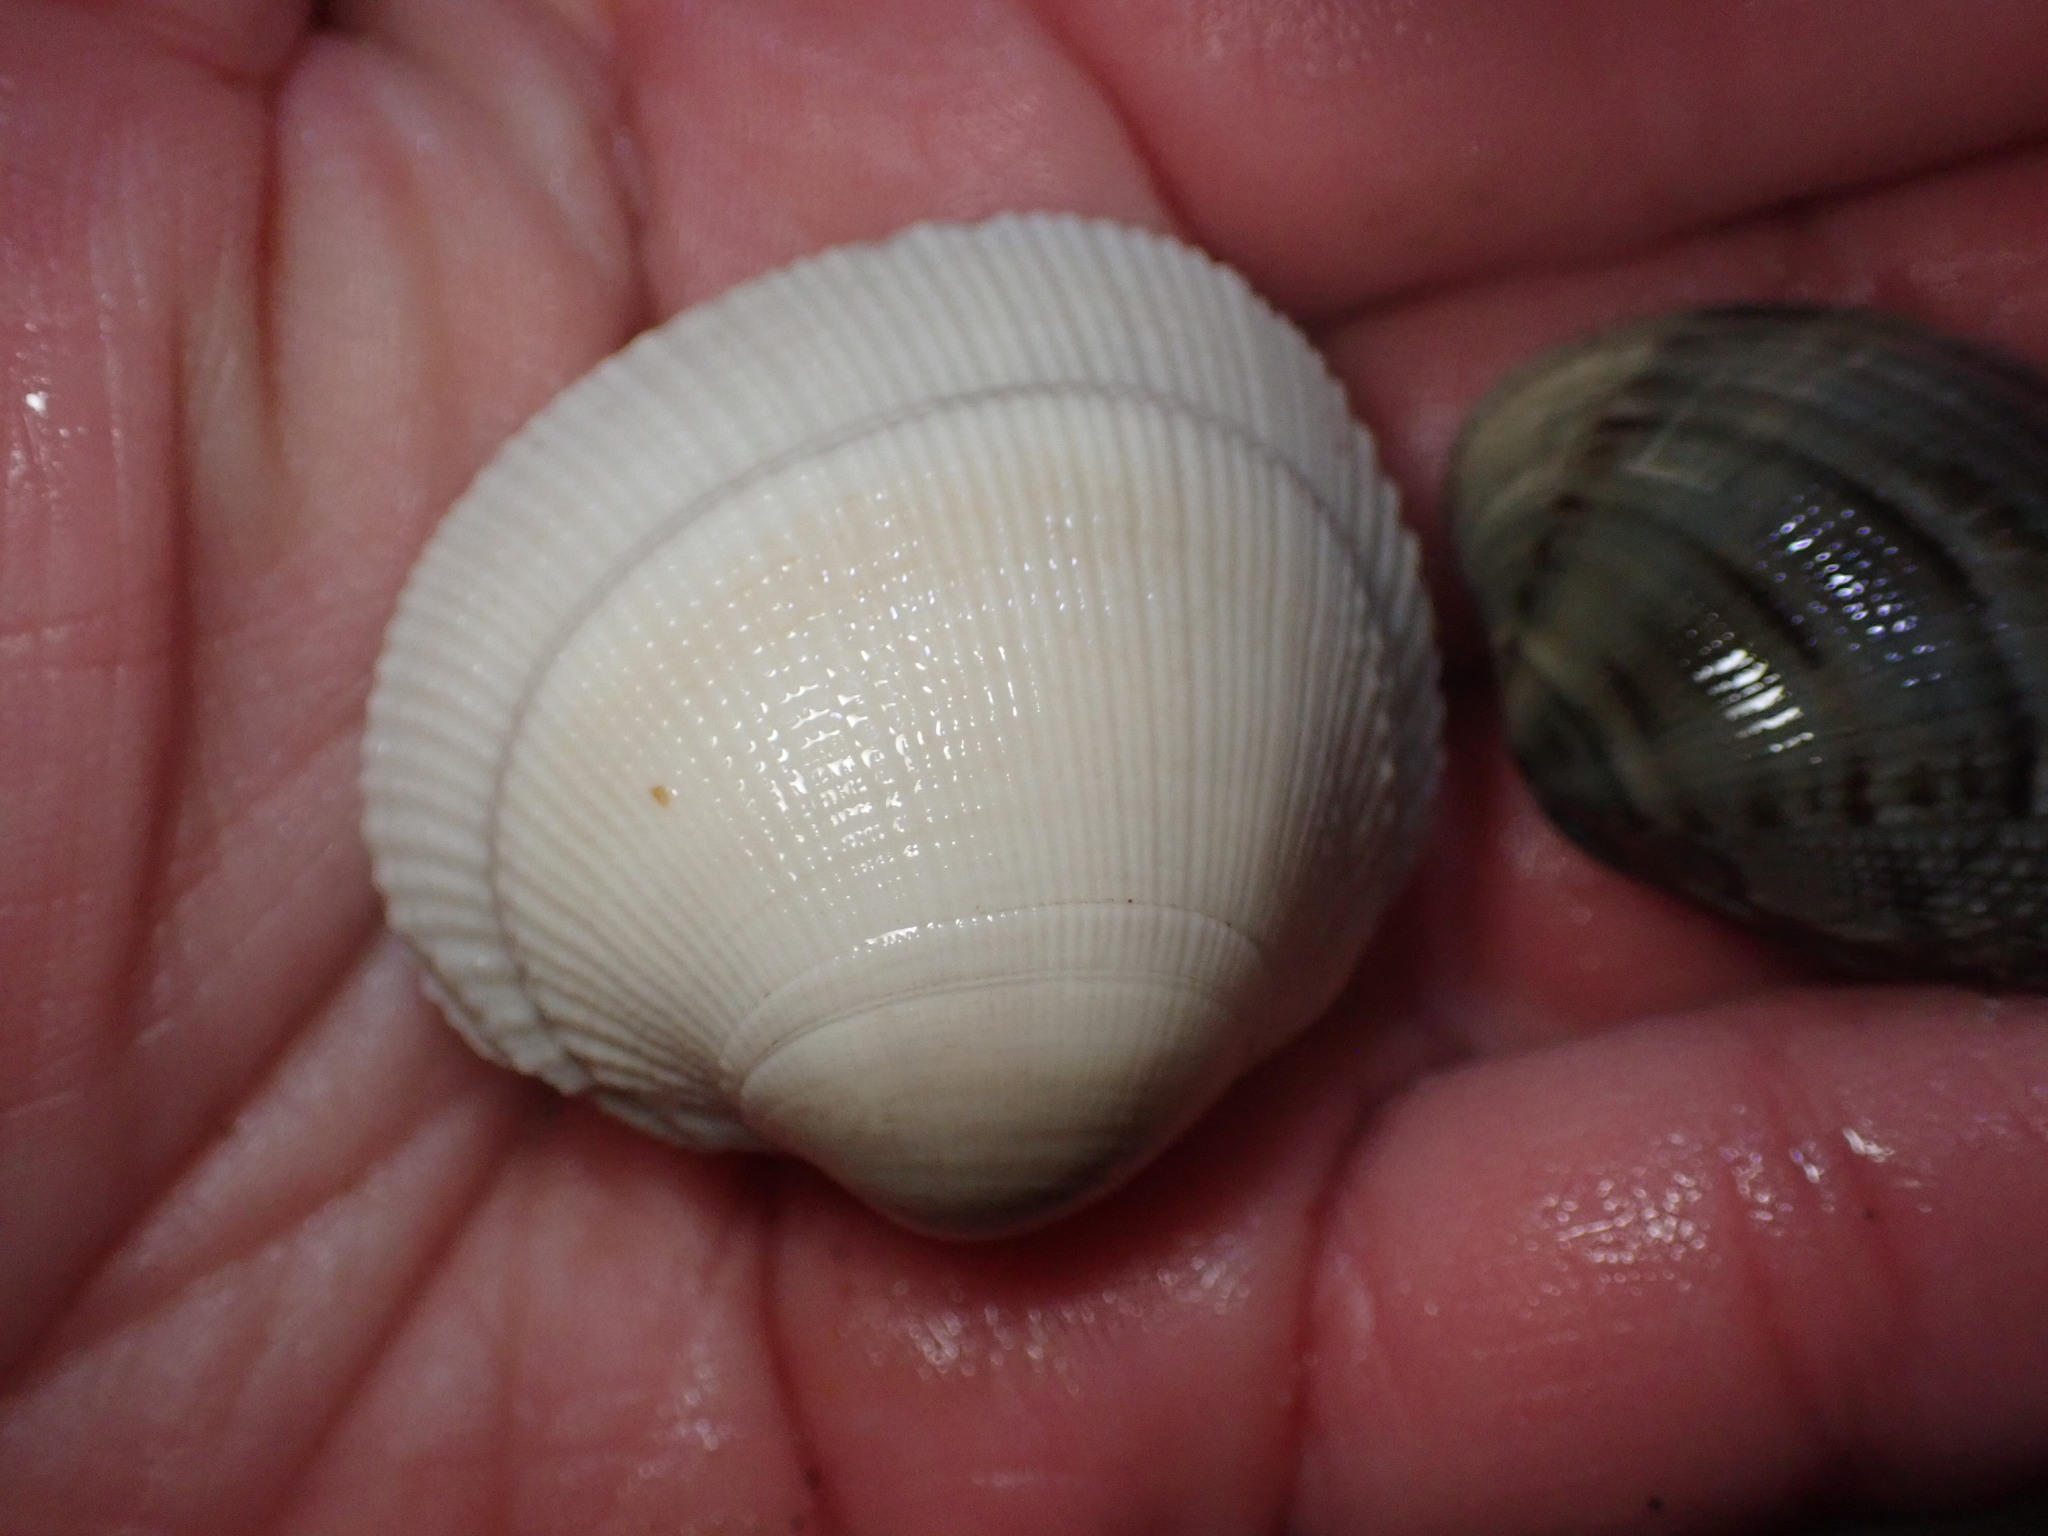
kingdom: Animalia
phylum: Mollusca
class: Bivalvia
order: Venerida
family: Veneridae
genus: Leukoma
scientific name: Leukoma staminea
